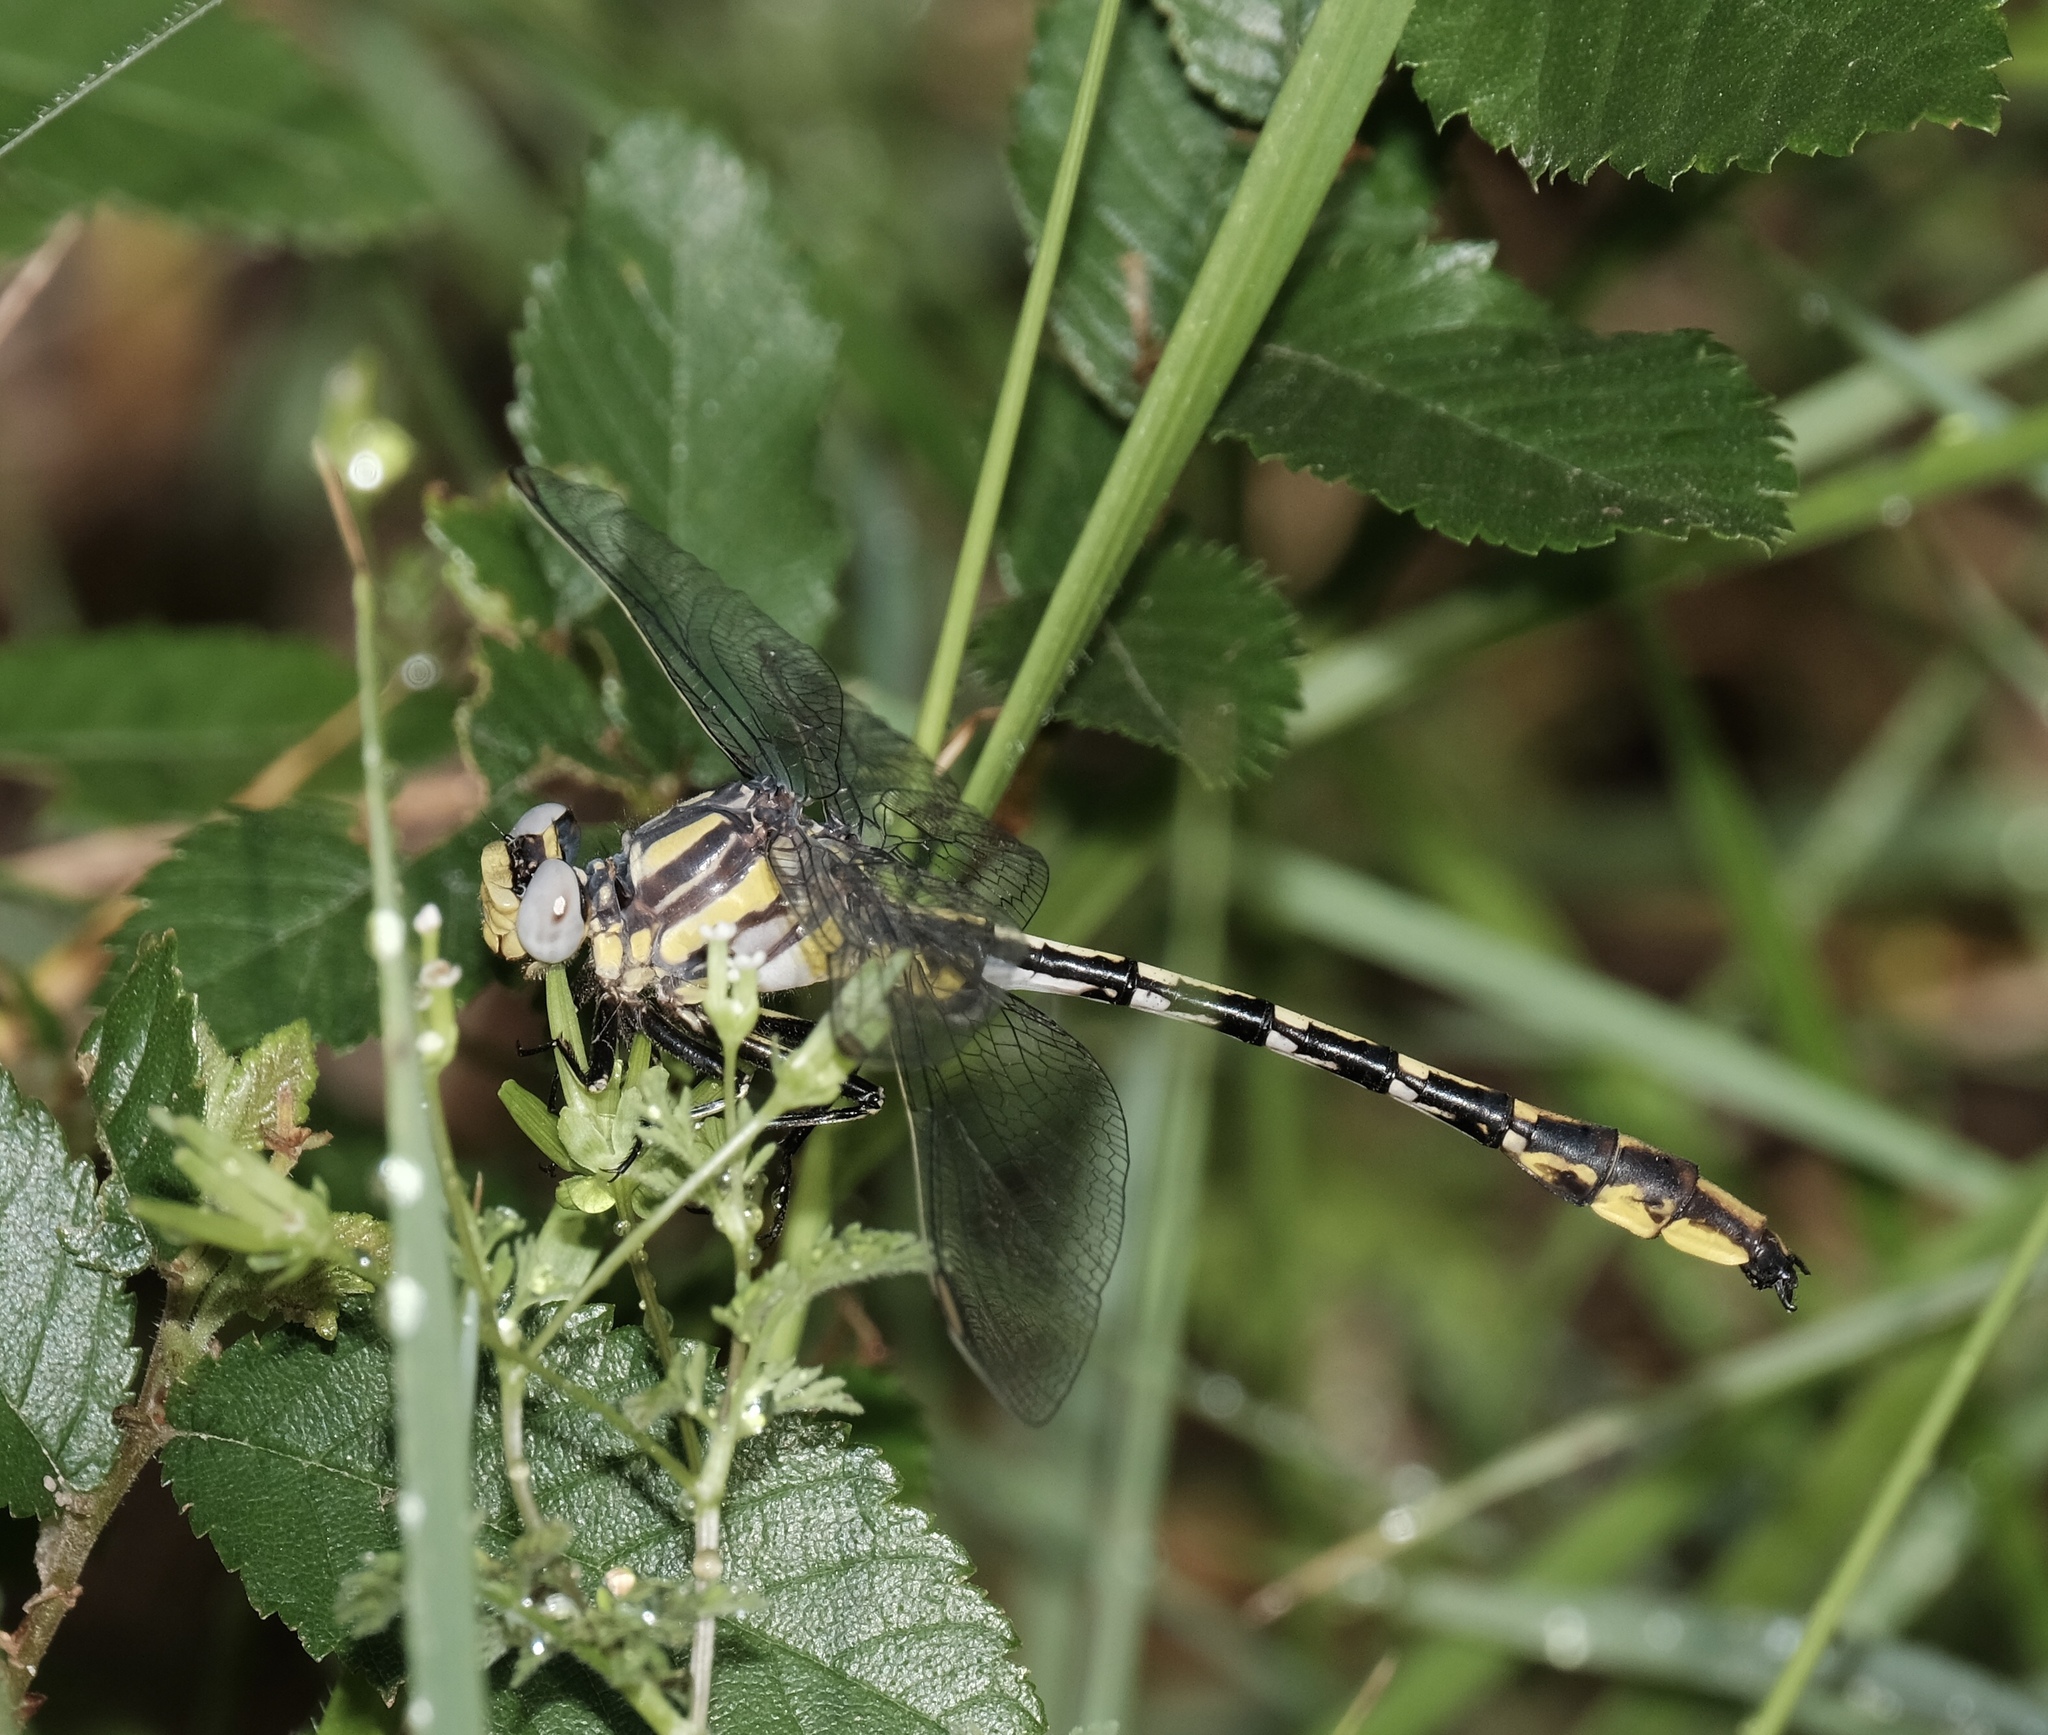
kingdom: Animalia
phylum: Arthropoda
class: Insecta
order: Odonata
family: Gomphidae
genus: Phanogomphus
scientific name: Phanogomphus militaris
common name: Sulphur-tipped clubtail
